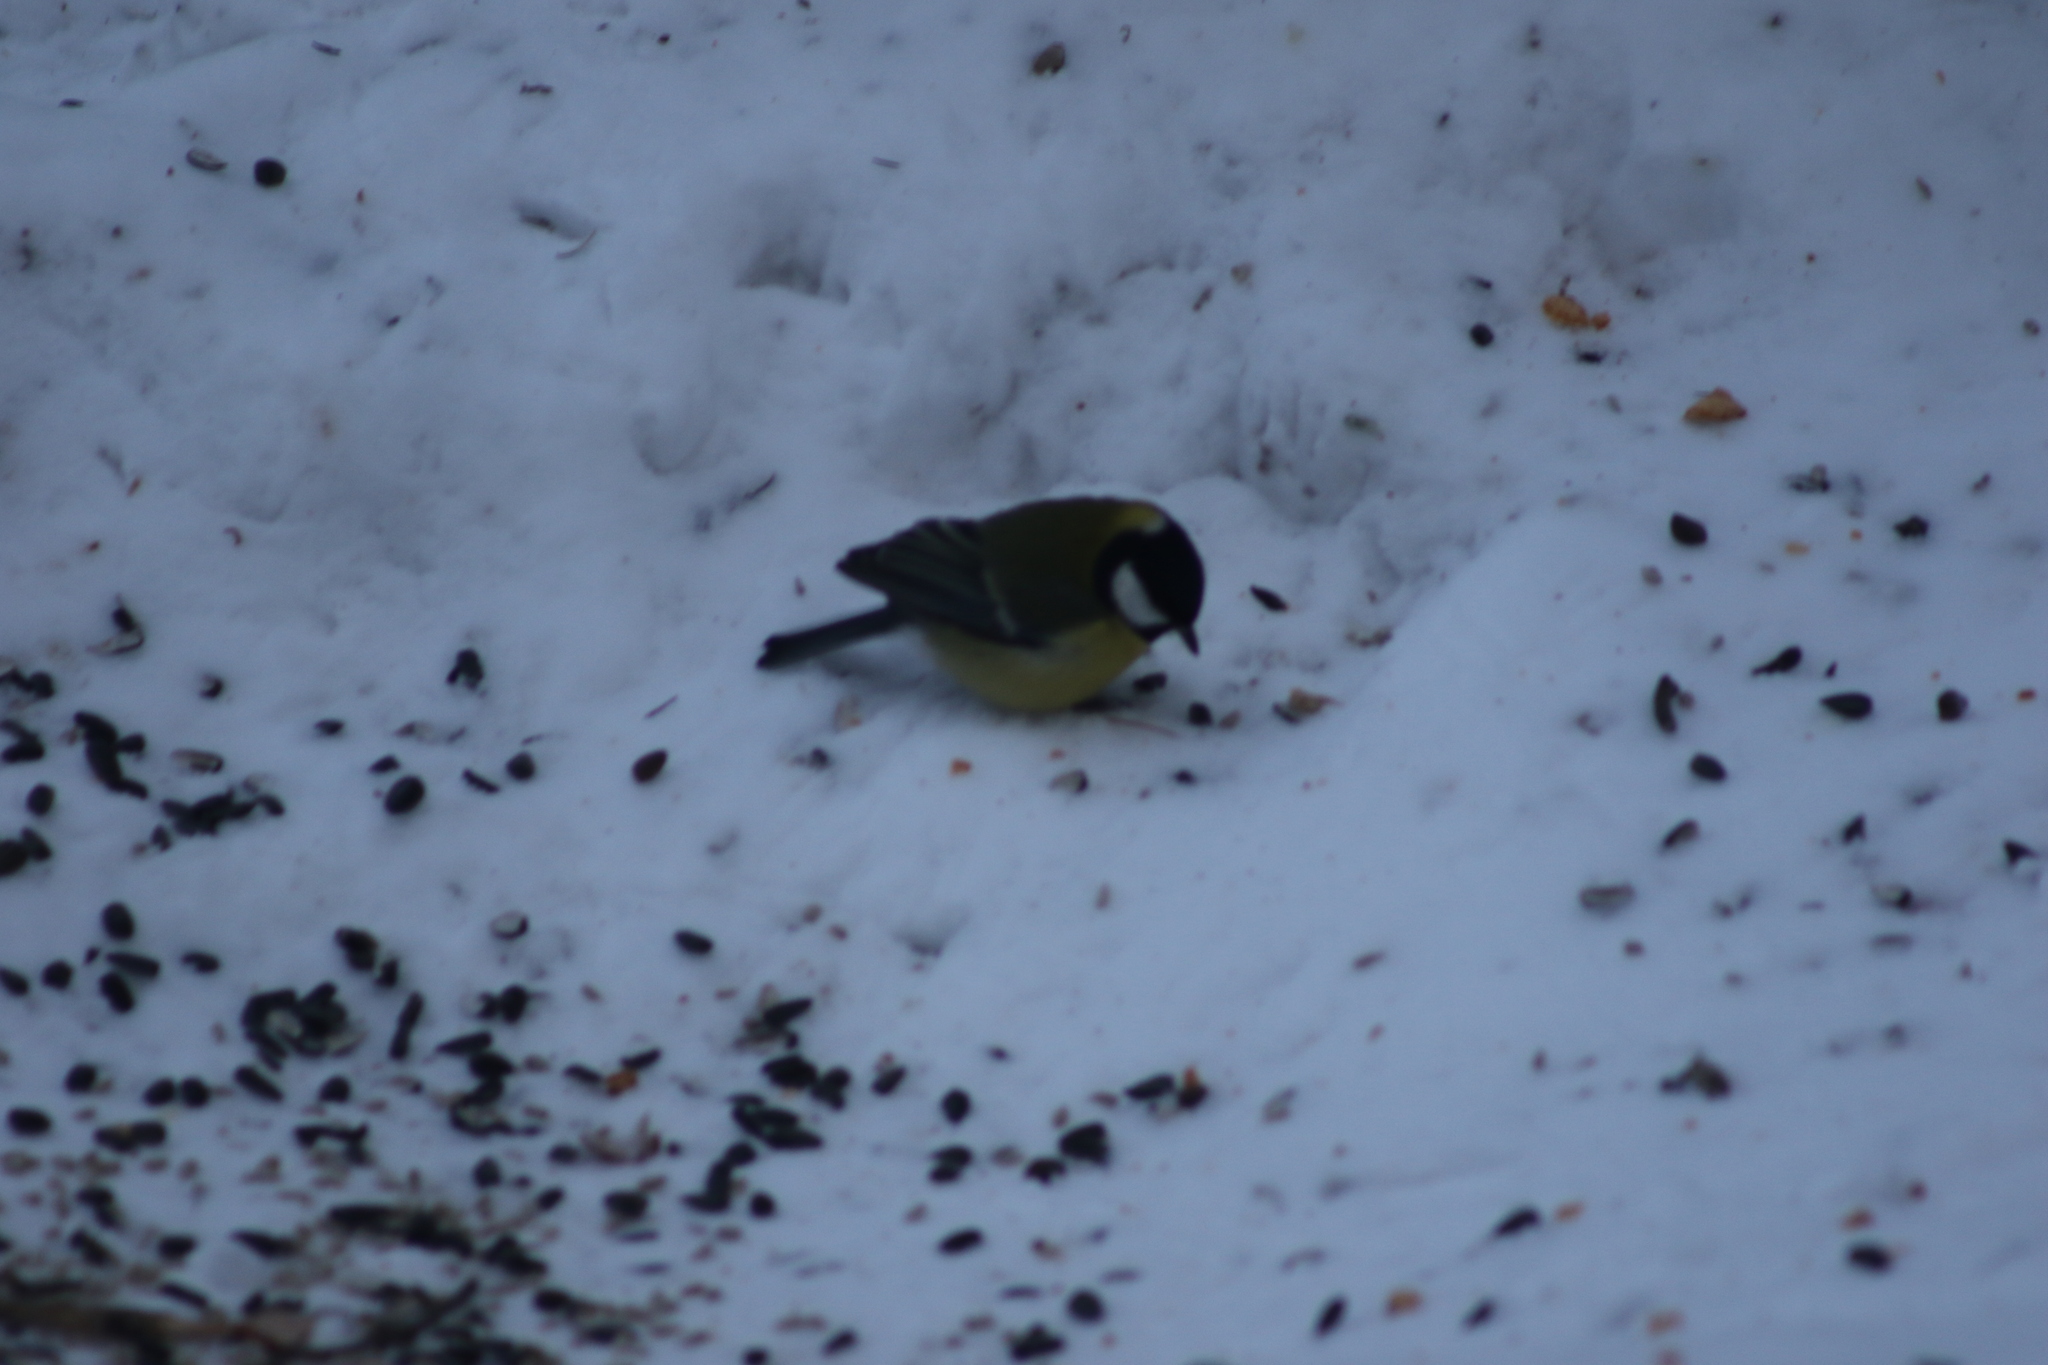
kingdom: Animalia
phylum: Chordata
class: Aves
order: Passeriformes
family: Paridae
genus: Parus
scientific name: Parus major
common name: Great tit
